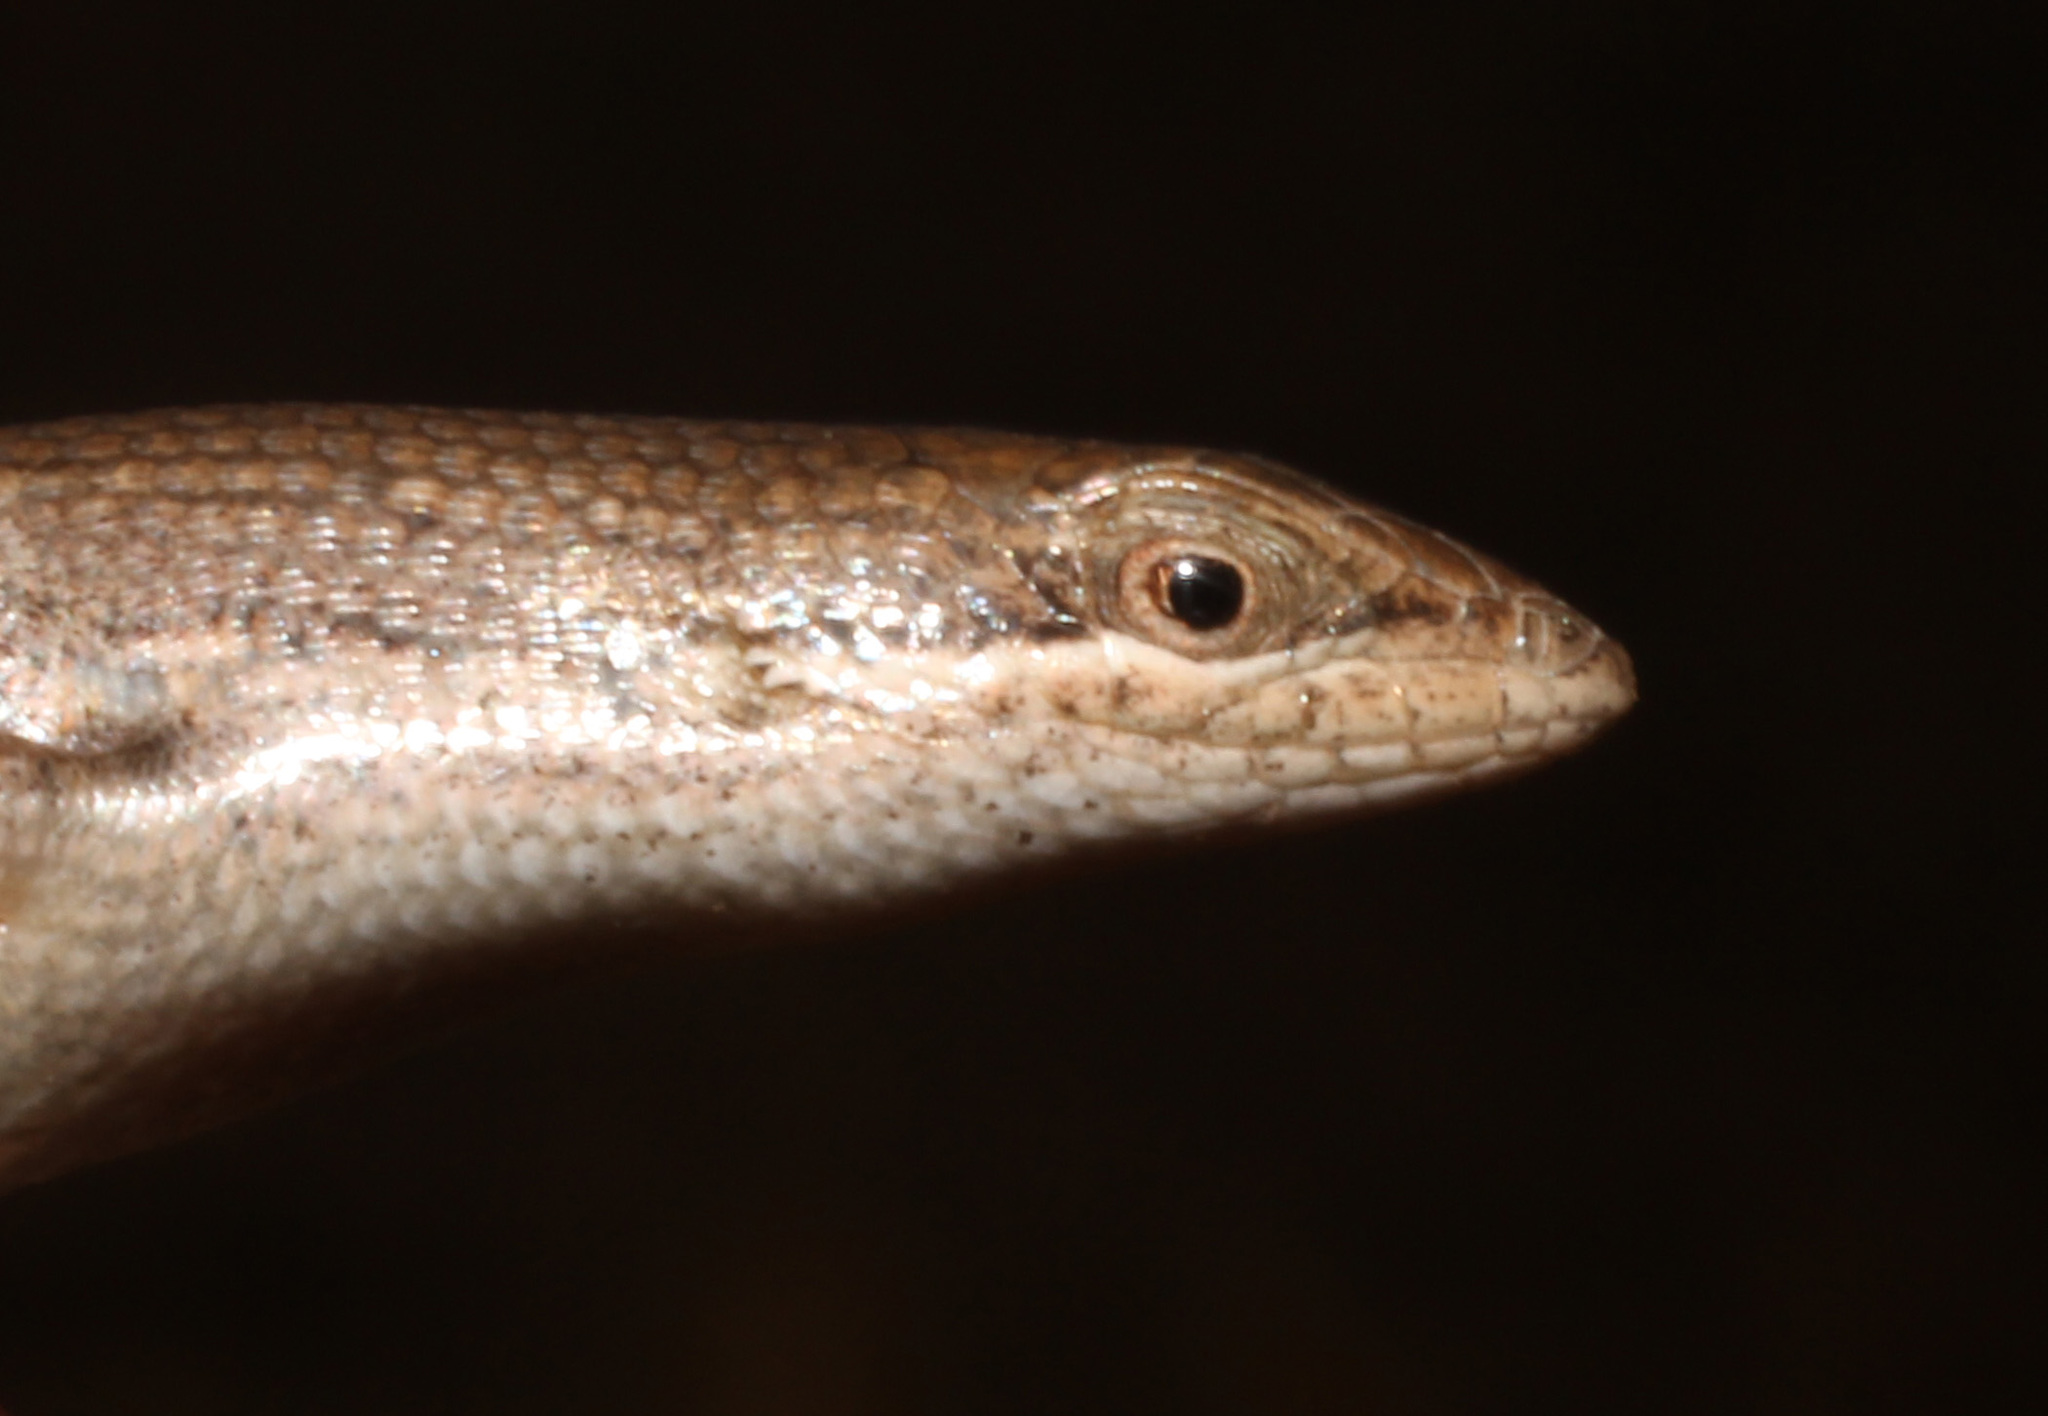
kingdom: Animalia
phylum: Chordata
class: Squamata
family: Scincidae
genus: Trachylepis
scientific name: Trachylepis punctulata
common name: Speckled sand skink
